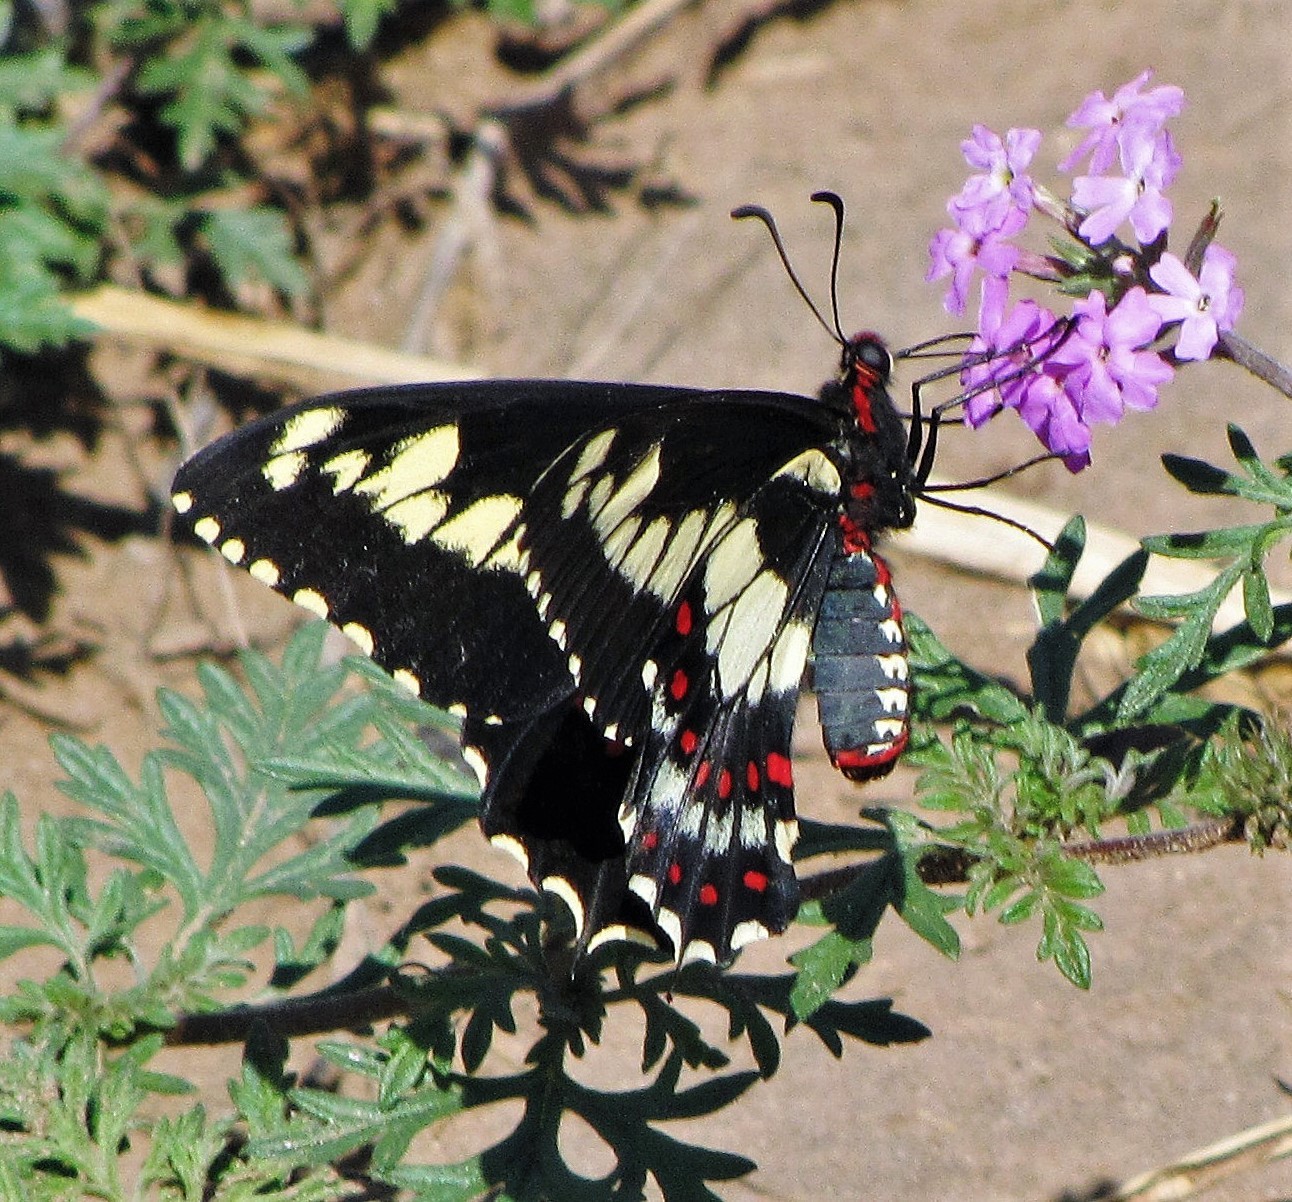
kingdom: Animalia
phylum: Arthropoda
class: Insecta
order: Lepidoptera
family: Papilionidae
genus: Euryades
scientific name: Euryades duponchelii
